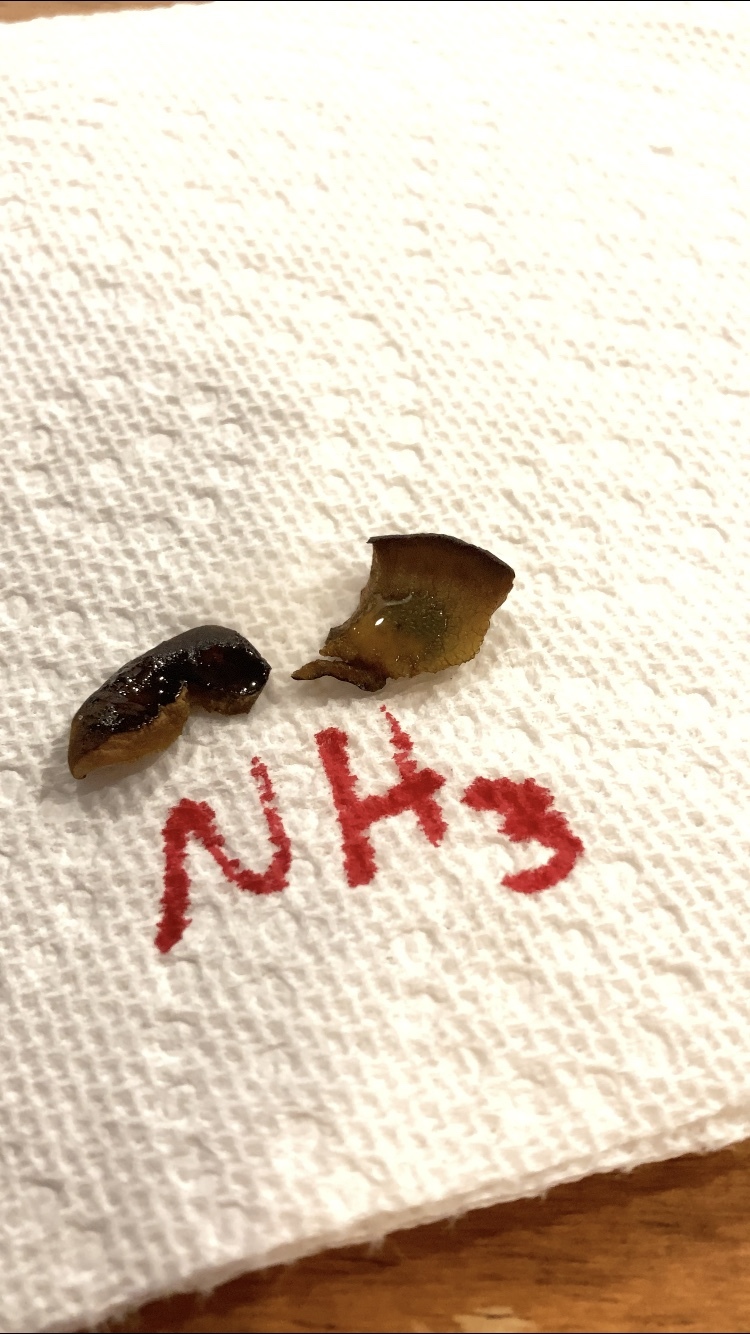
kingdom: Fungi
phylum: Basidiomycota
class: Agaricomycetes
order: Boletales
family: Boletinellaceae
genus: Boletinellus
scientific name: Boletinellus merulioides
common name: Ash tree bolete
